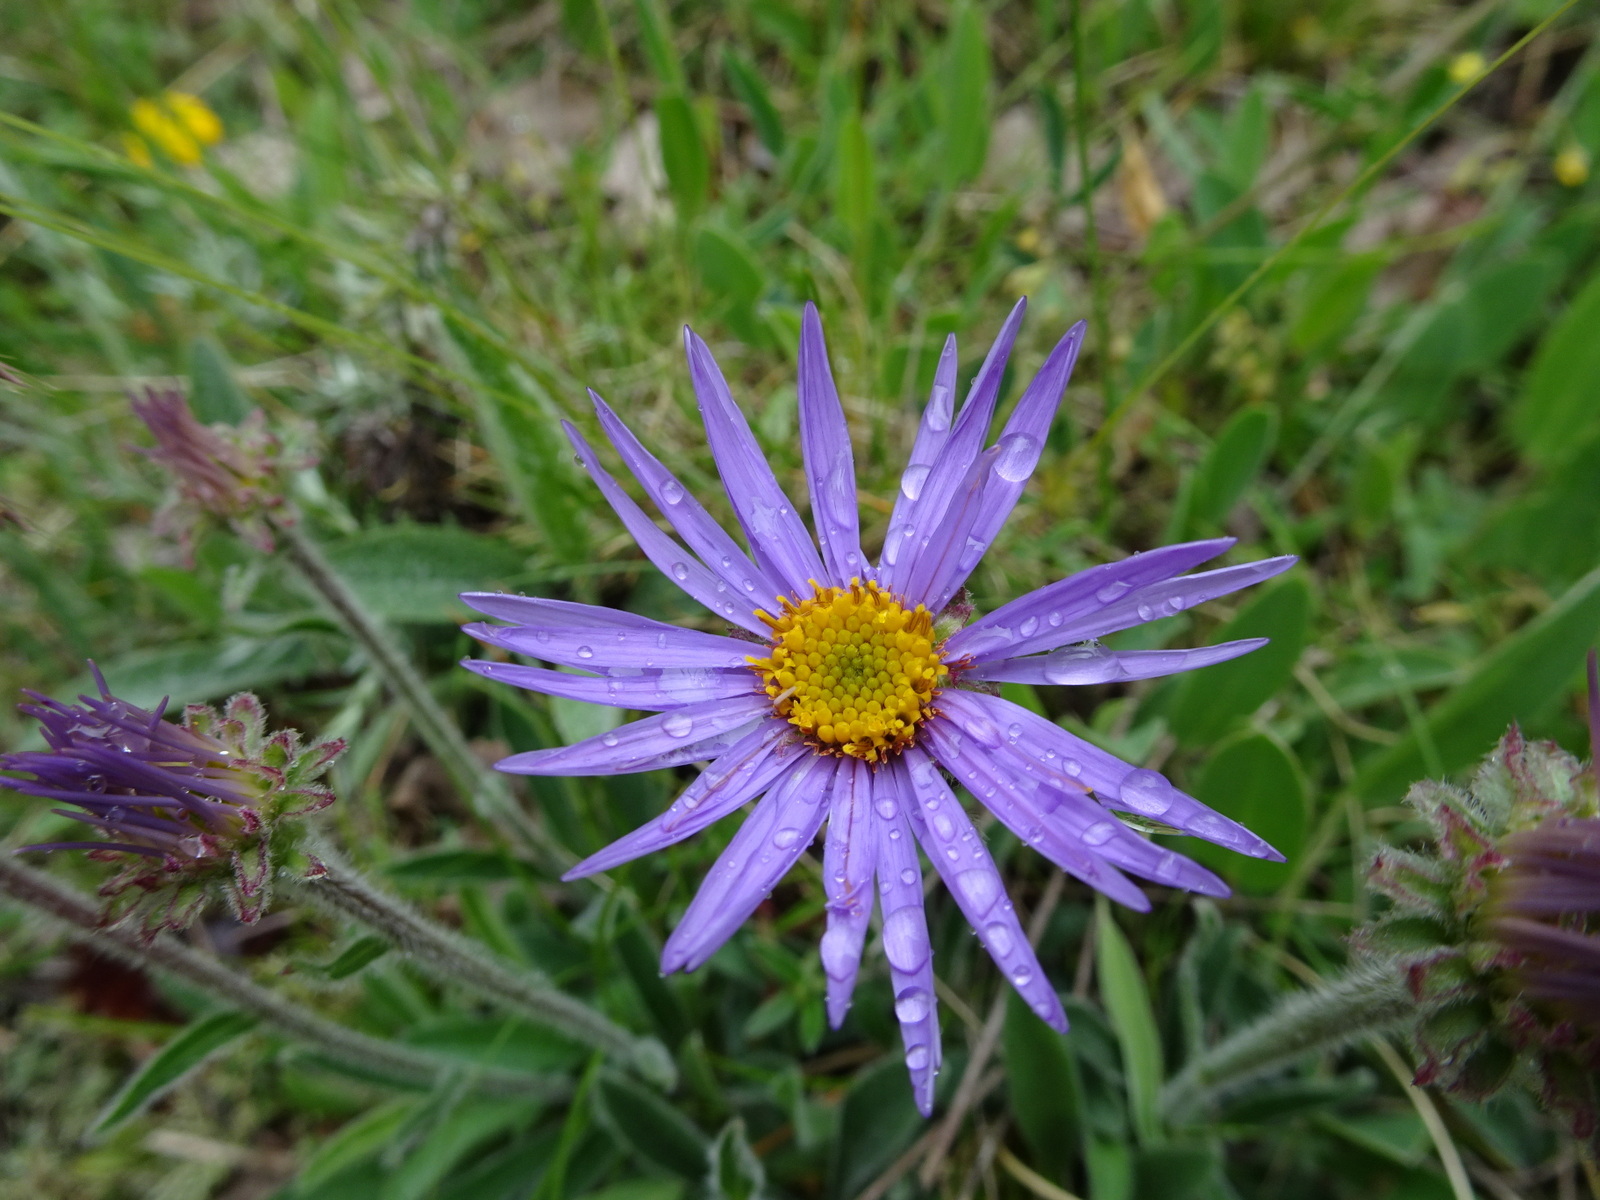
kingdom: Plantae
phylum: Tracheophyta
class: Magnoliopsida
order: Asterales
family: Asteraceae
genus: Aster
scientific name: Aster alpinus
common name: Alpine aster
